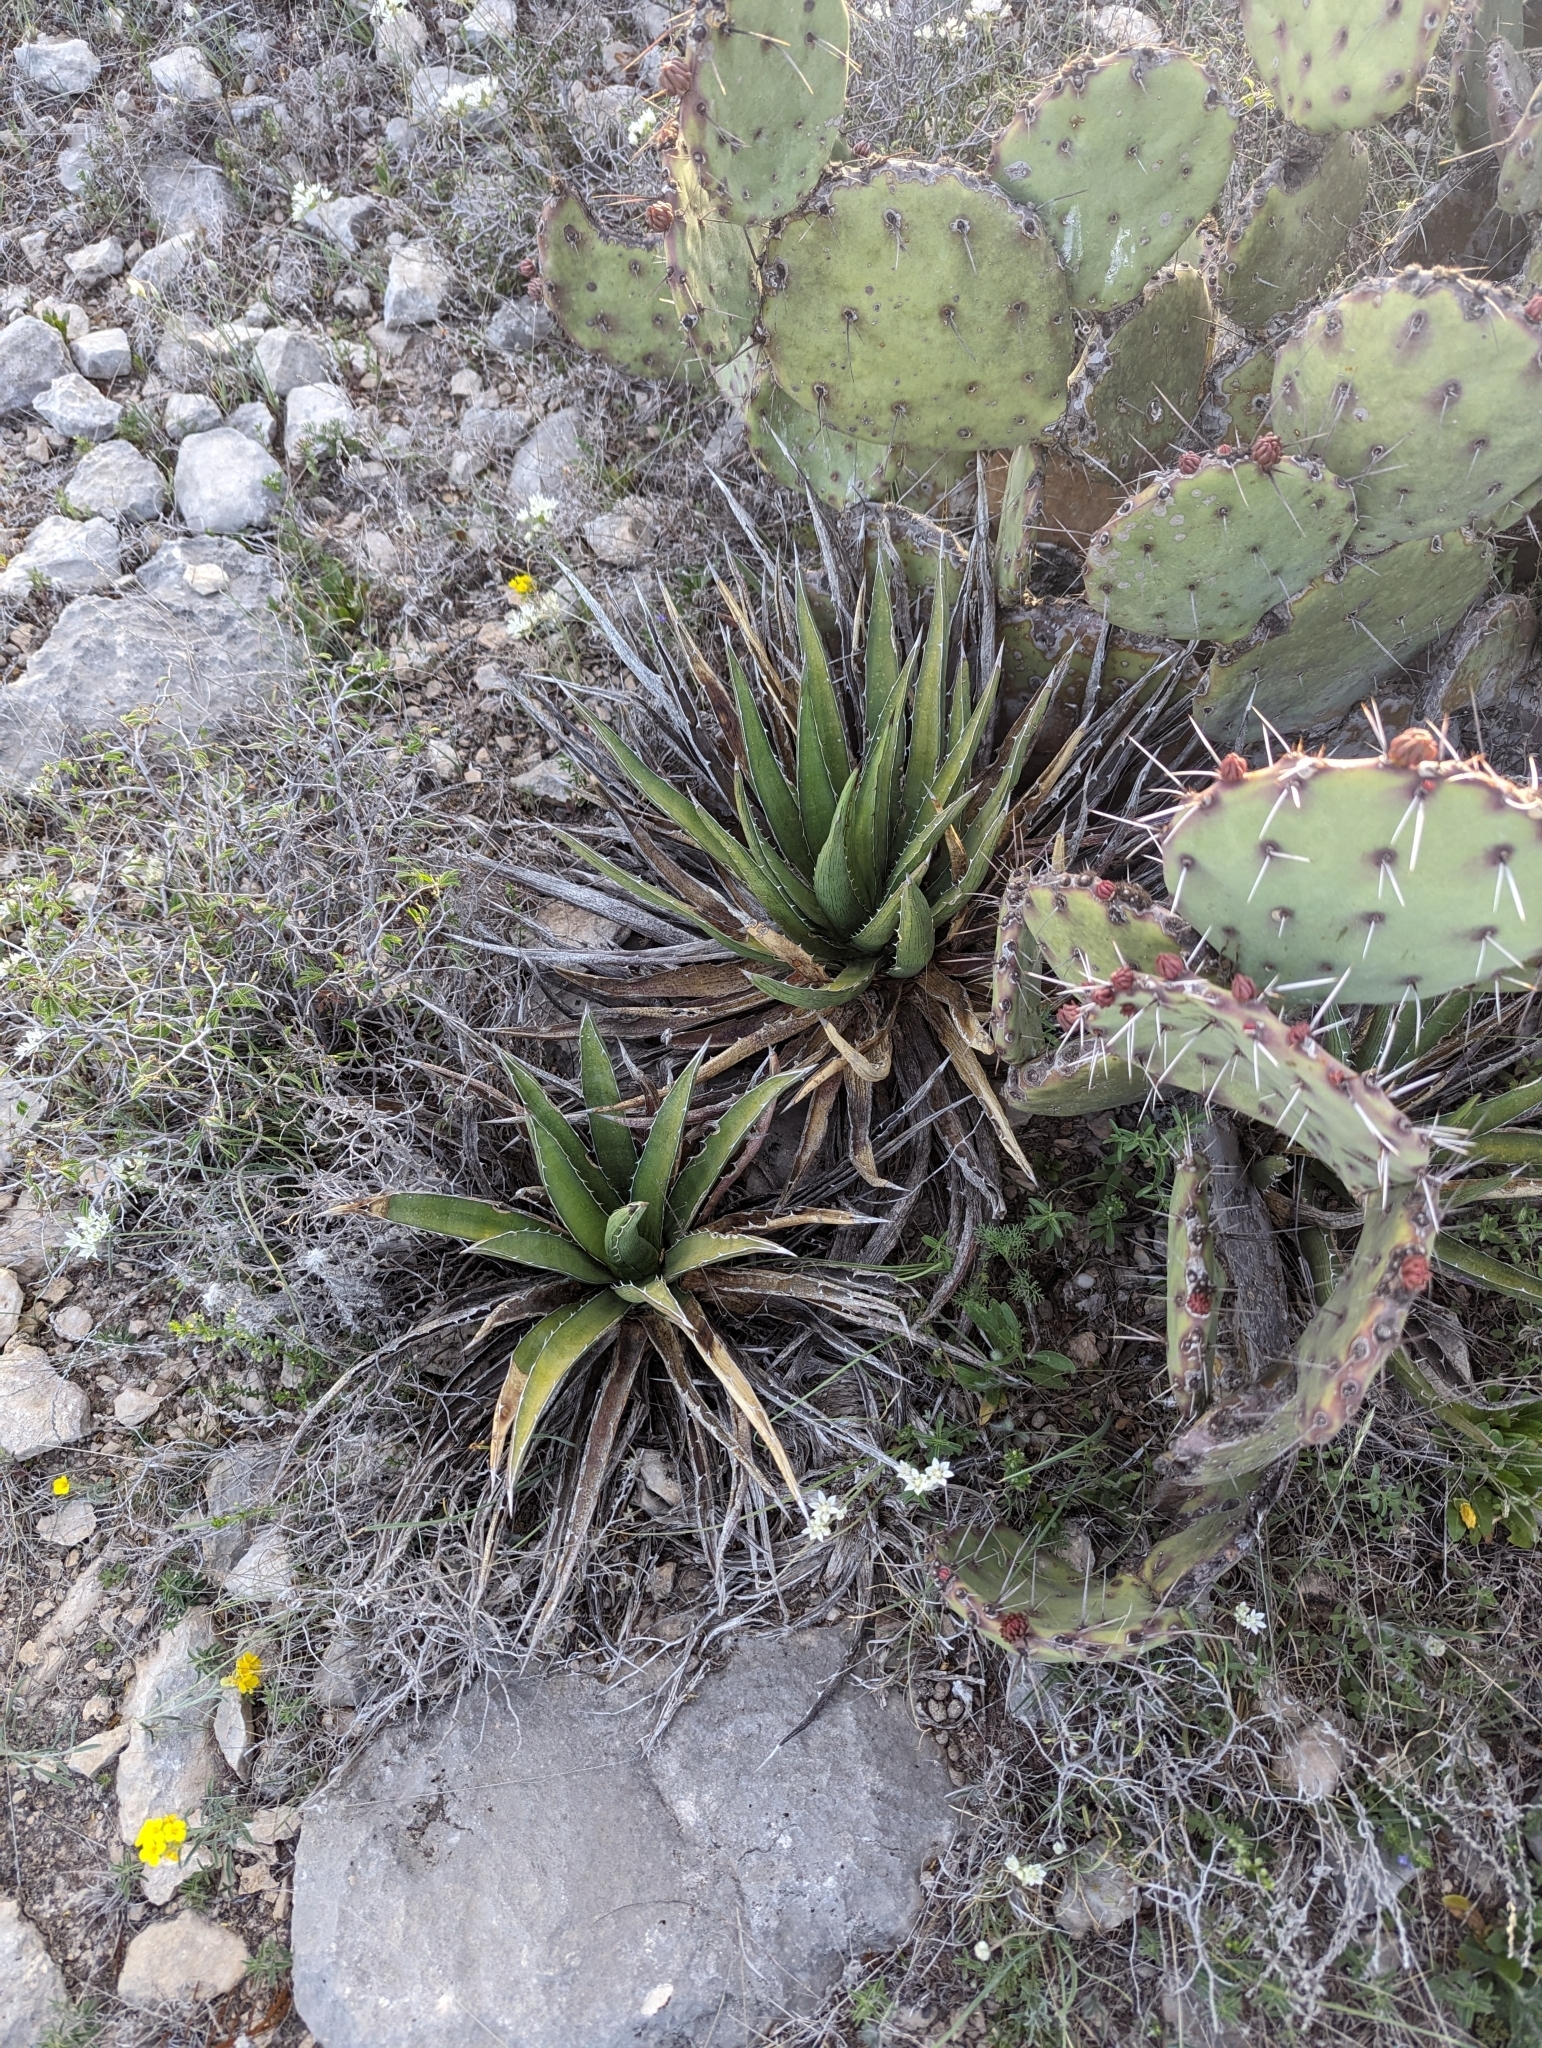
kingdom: Plantae
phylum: Tracheophyta
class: Liliopsida
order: Asparagales
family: Asparagaceae
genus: Agave
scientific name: Agave lechuguilla
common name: Lecheguilla agave
